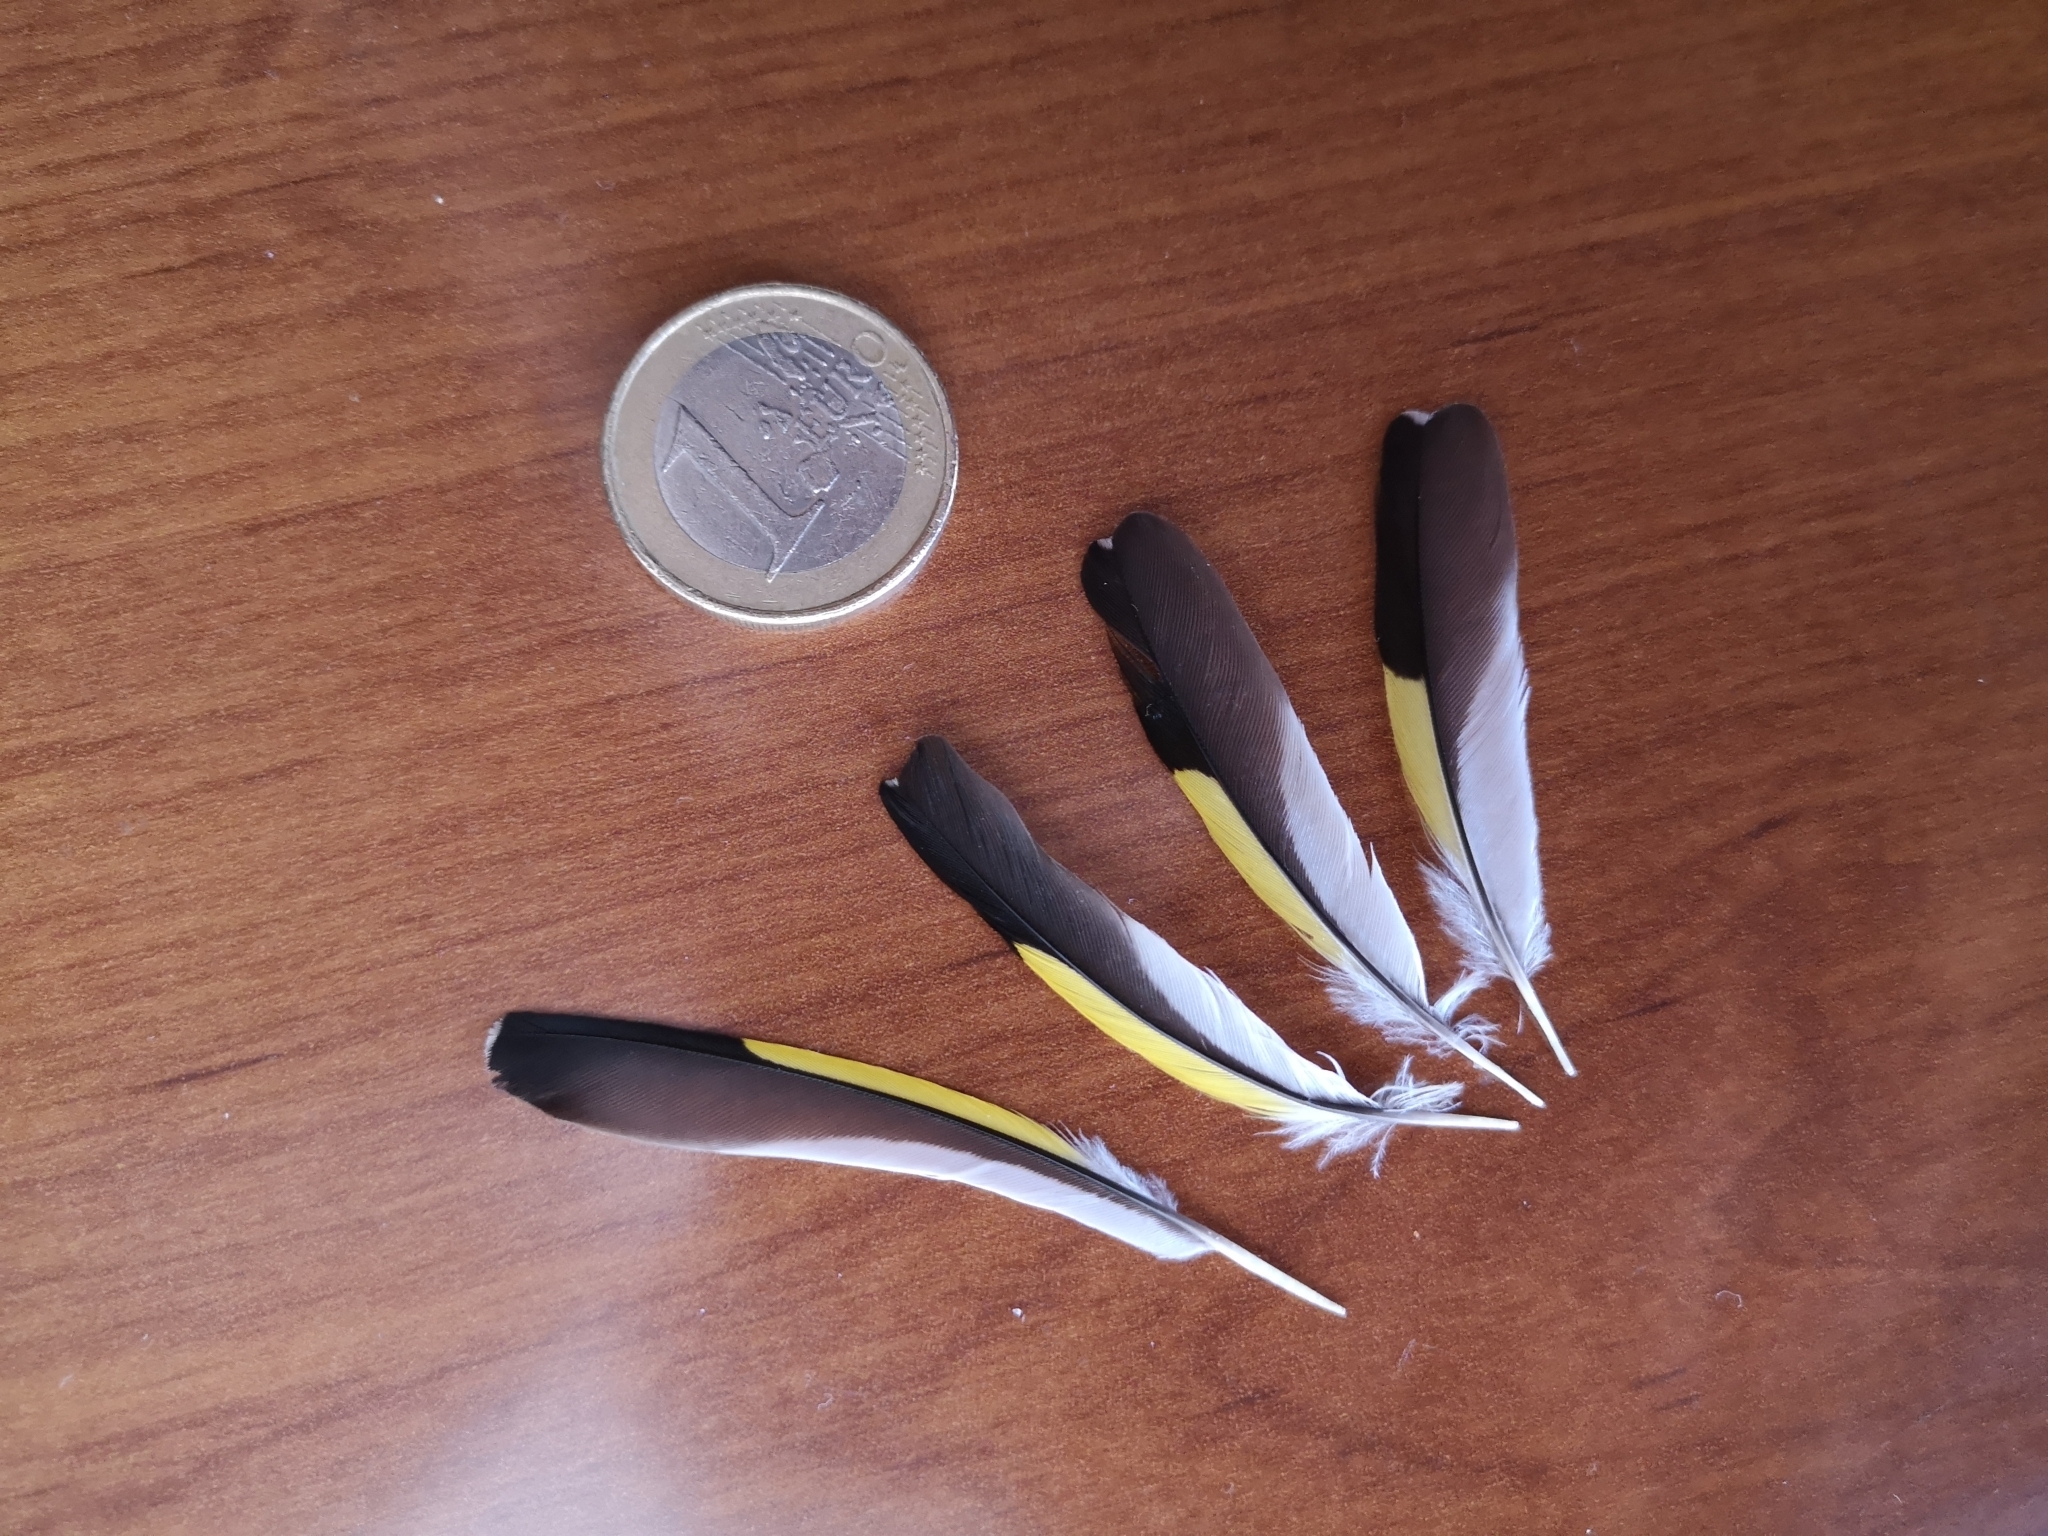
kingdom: Animalia
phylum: Chordata
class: Aves
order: Passeriformes
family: Fringillidae
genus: Carduelis
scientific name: Carduelis carduelis
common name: European goldfinch
